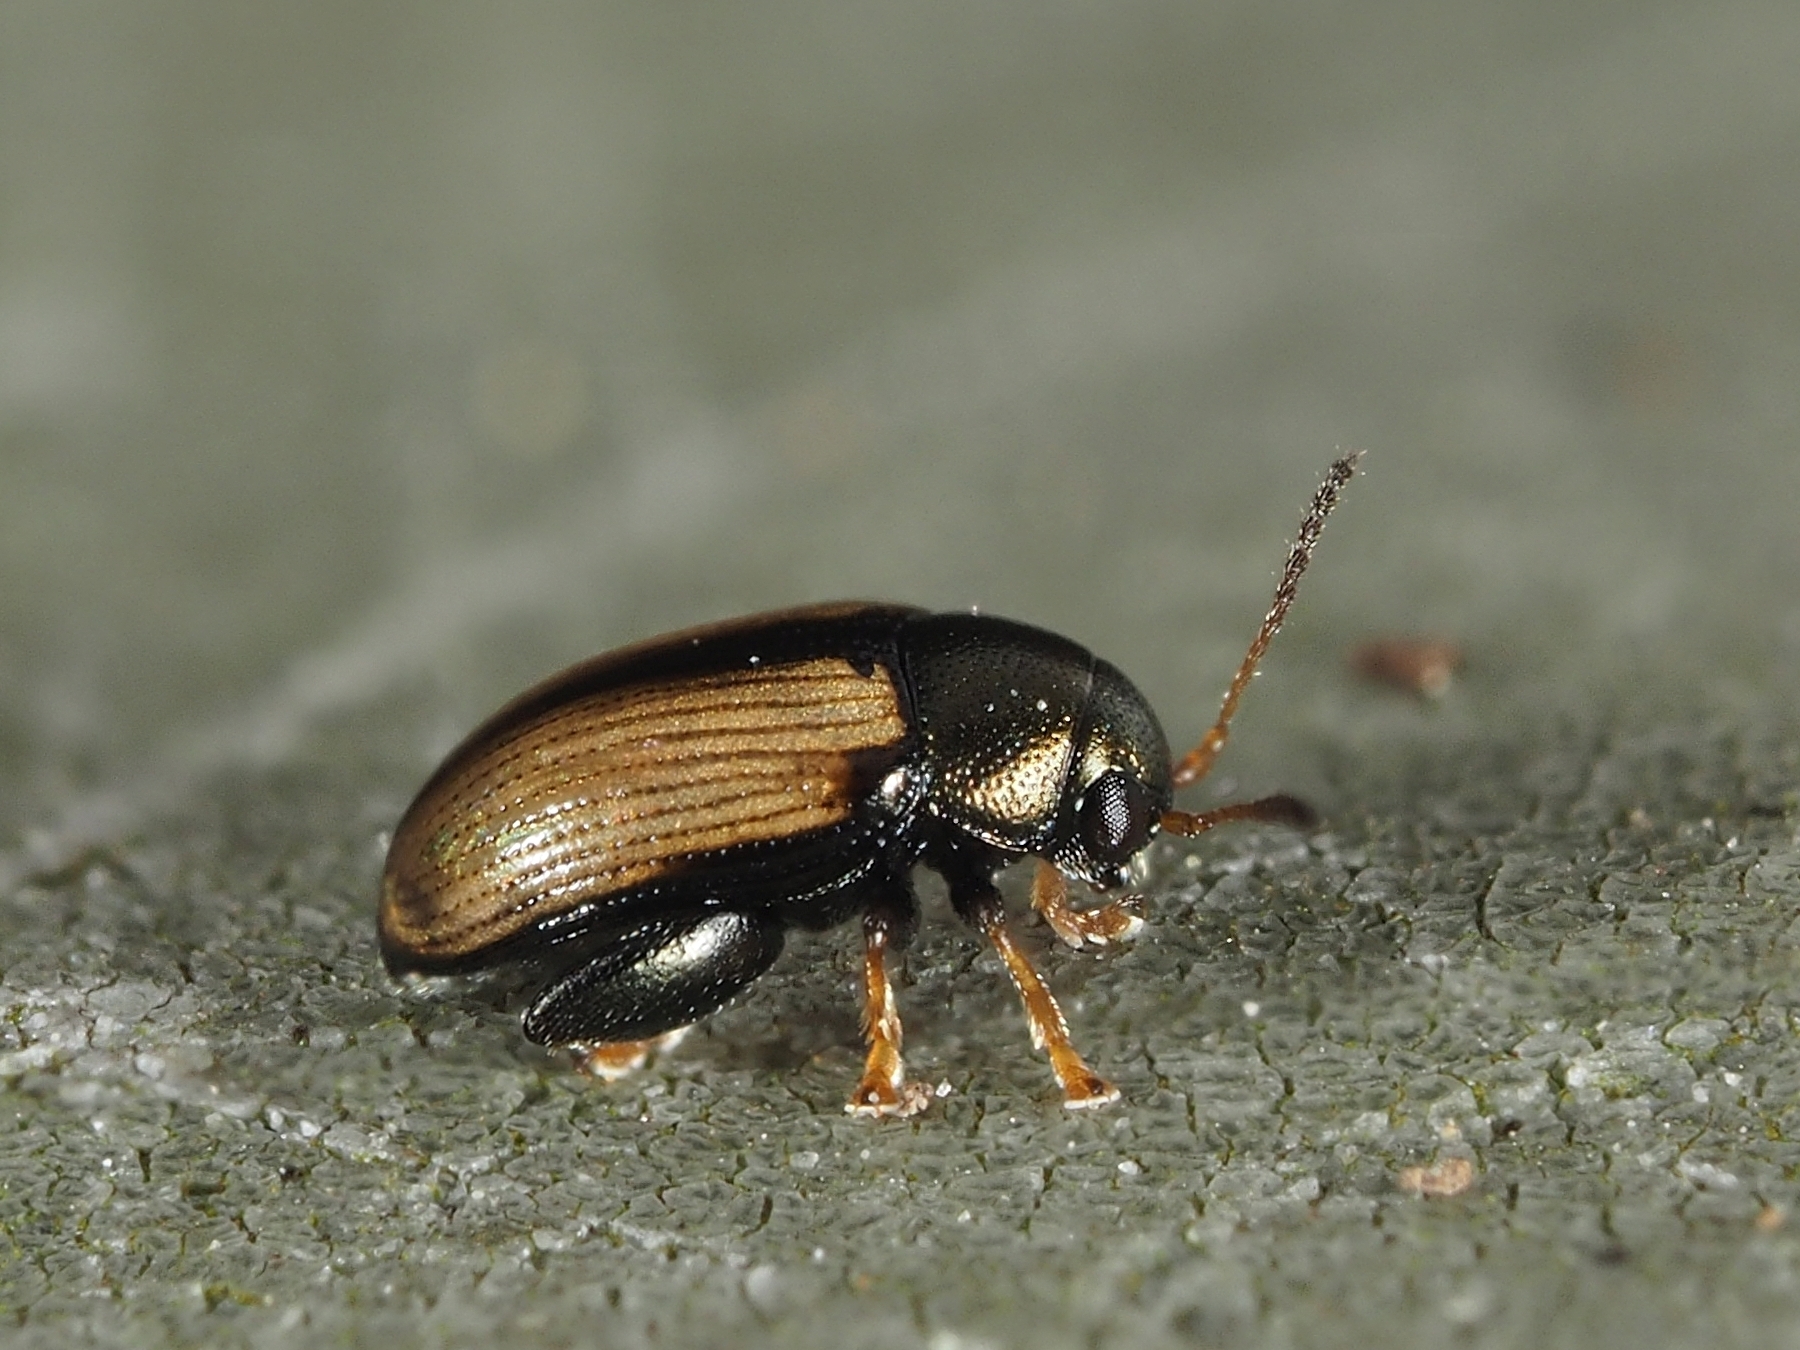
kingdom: Animalia
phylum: Arthropoda
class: Insecta
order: Coleoptera
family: Chrysomelidae
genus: Chaetocnema
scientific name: Chaetocnema conducta
